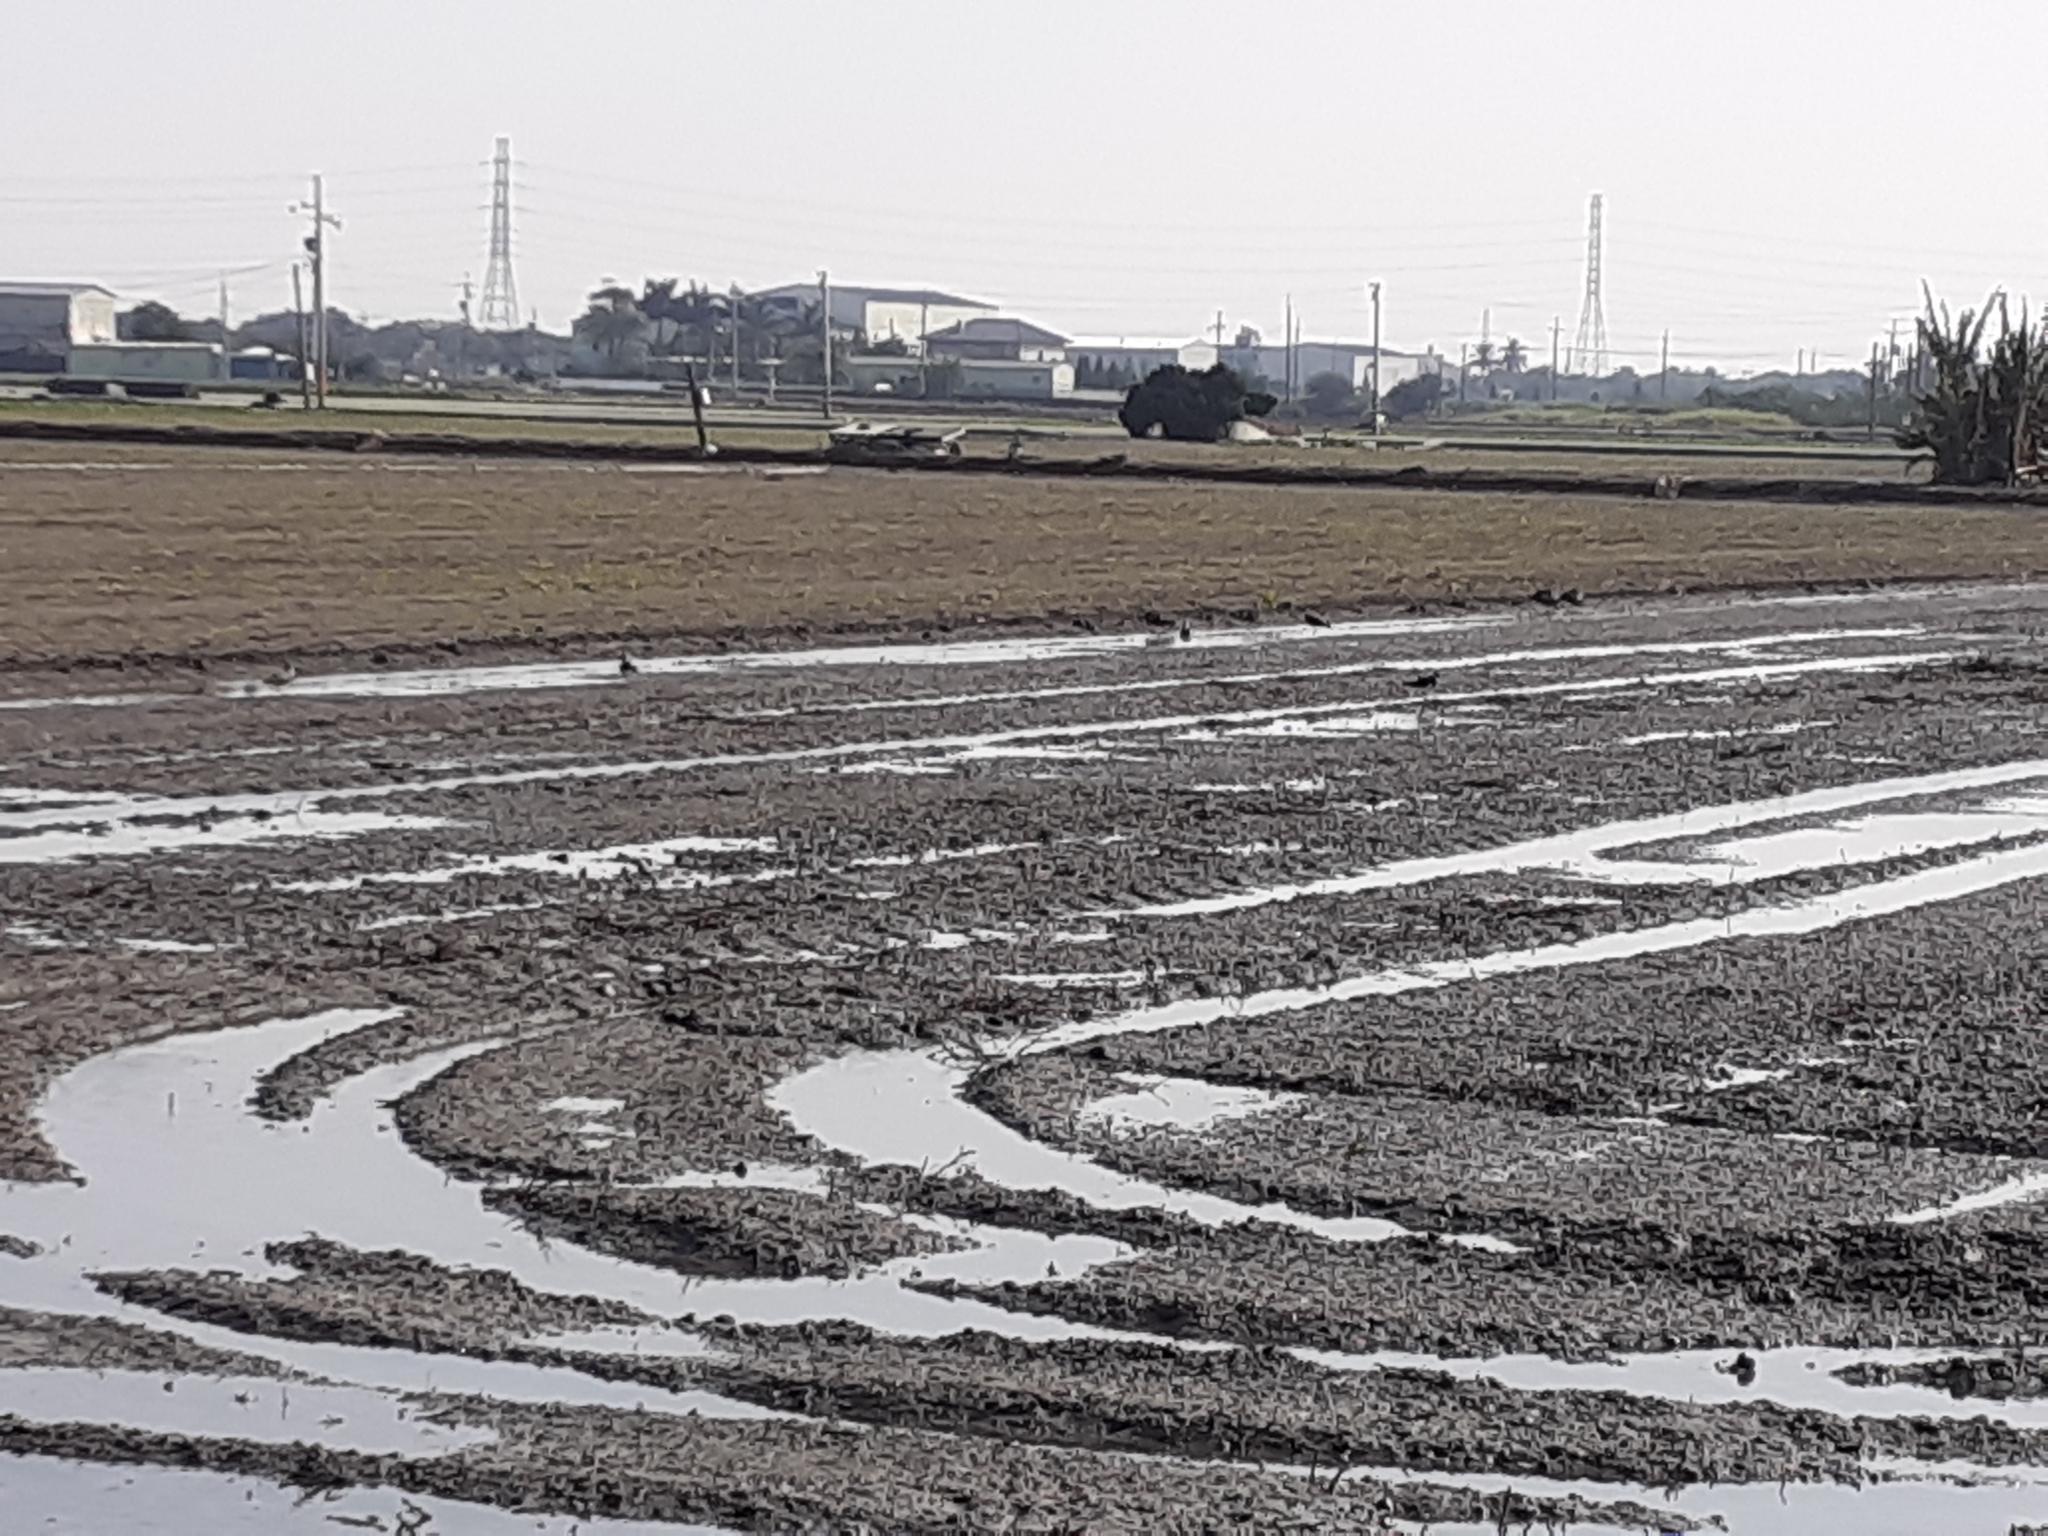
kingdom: Animalia
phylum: Chordata
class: Aves
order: Charadriiformes
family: Charadriidae
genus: Vanellus
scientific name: Vanellus vanellus
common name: Northern lapwing
